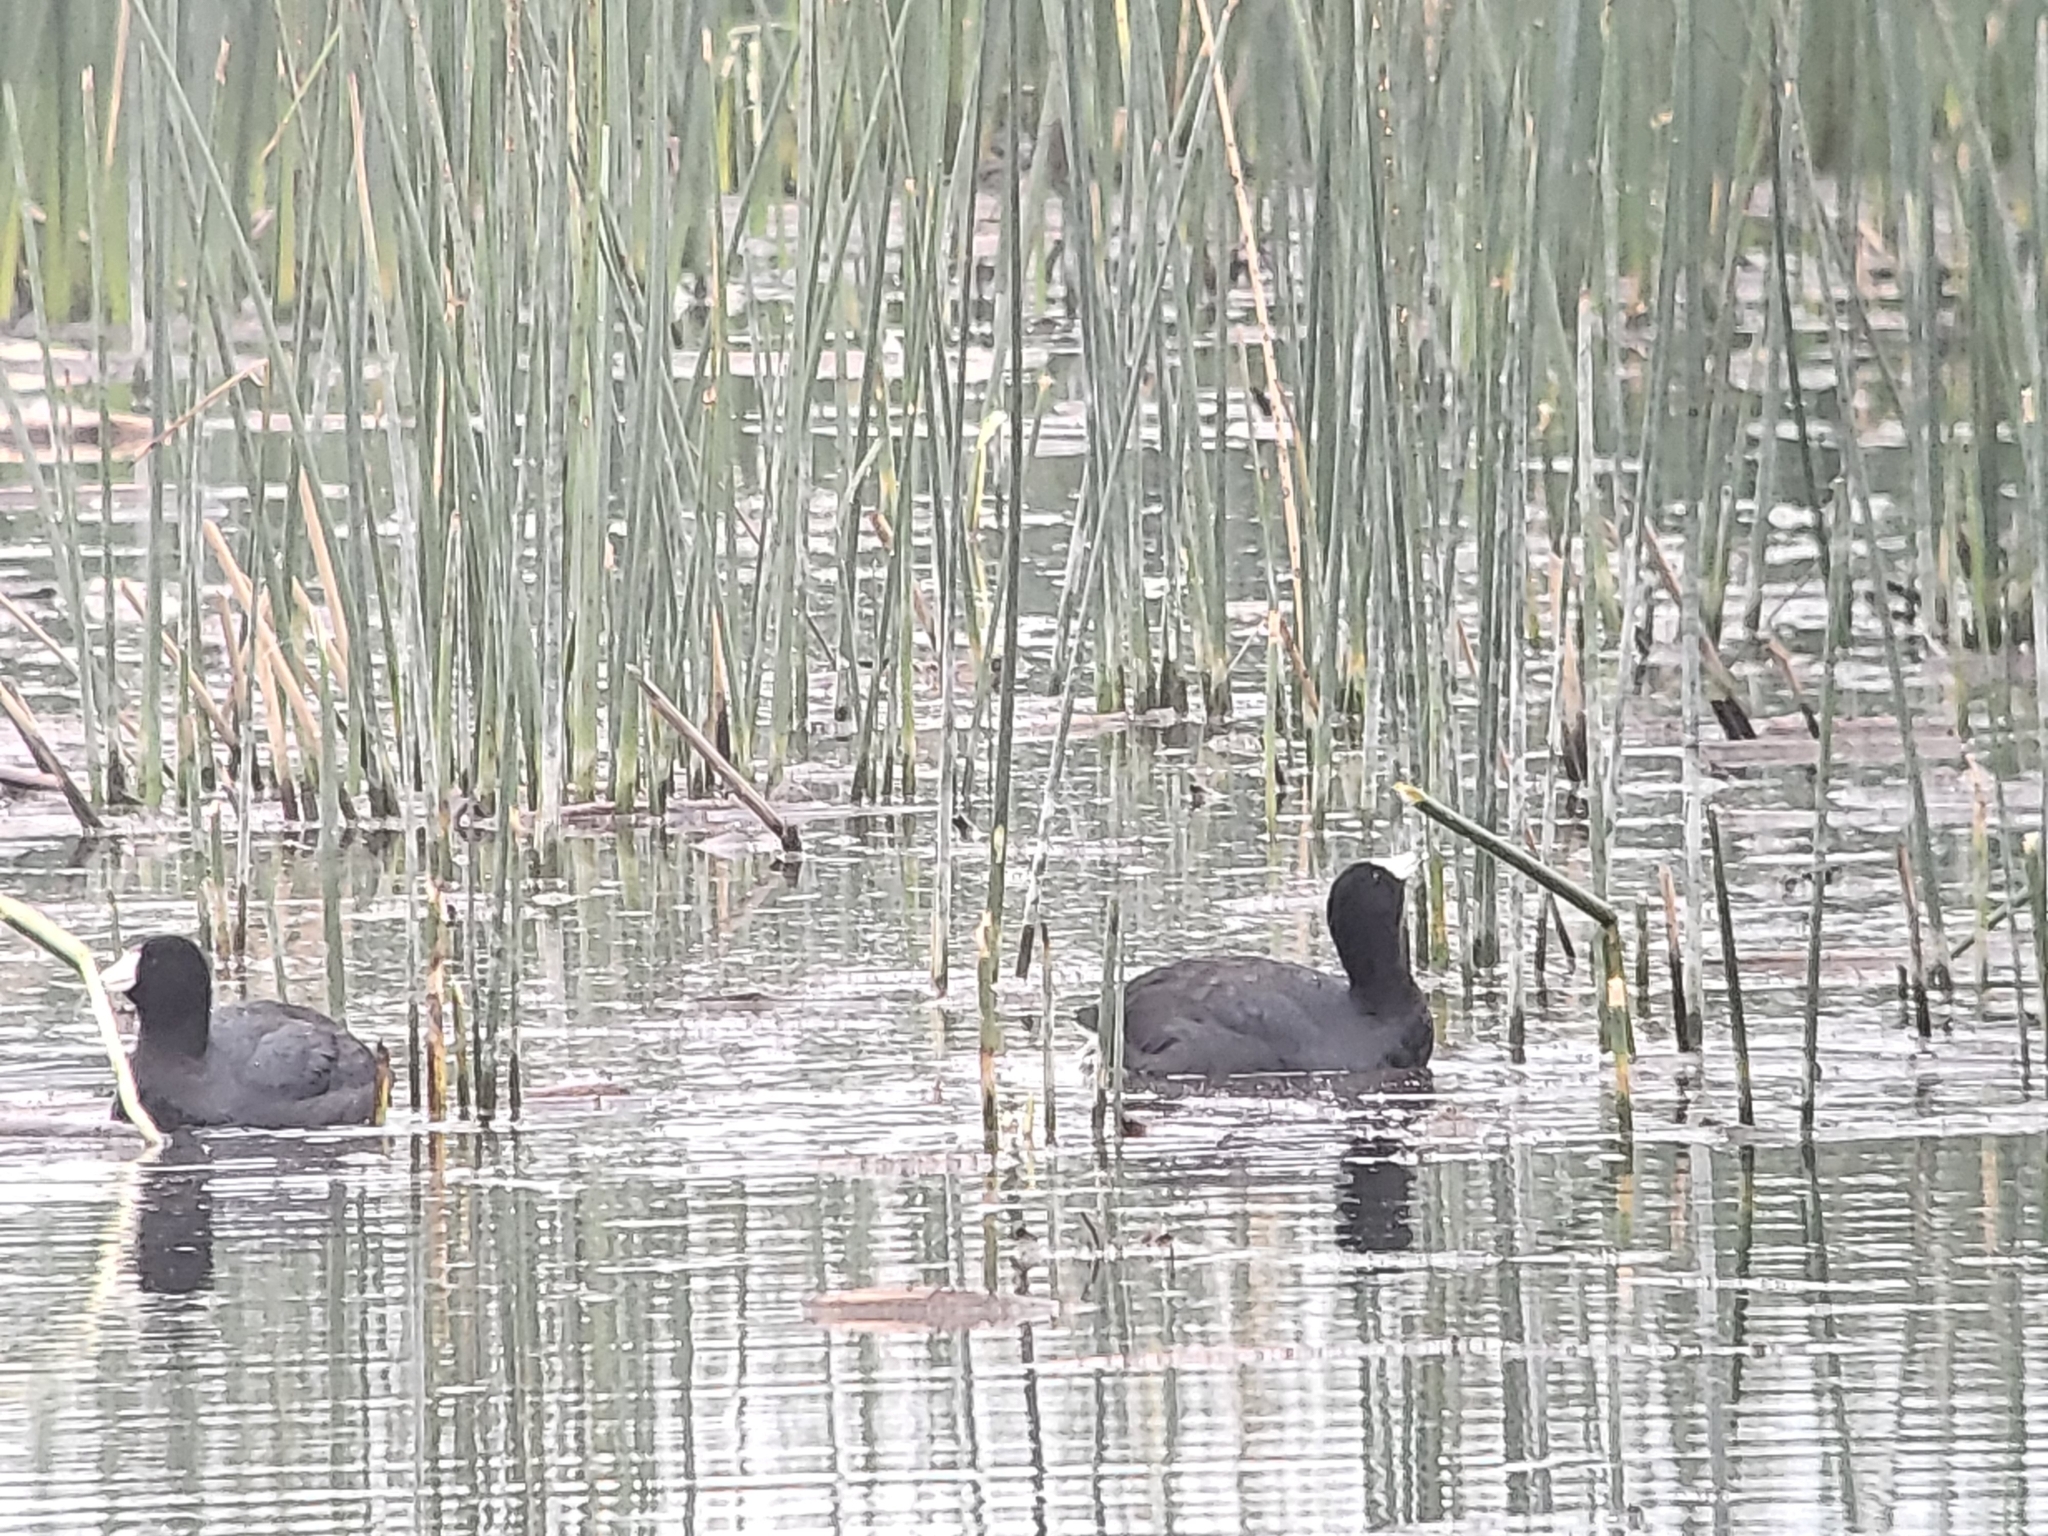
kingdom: Animalia
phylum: Chordata
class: Aves
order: Gruiformes
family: Rallidae
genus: Fulica
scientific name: Fulica americana
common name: American coot
